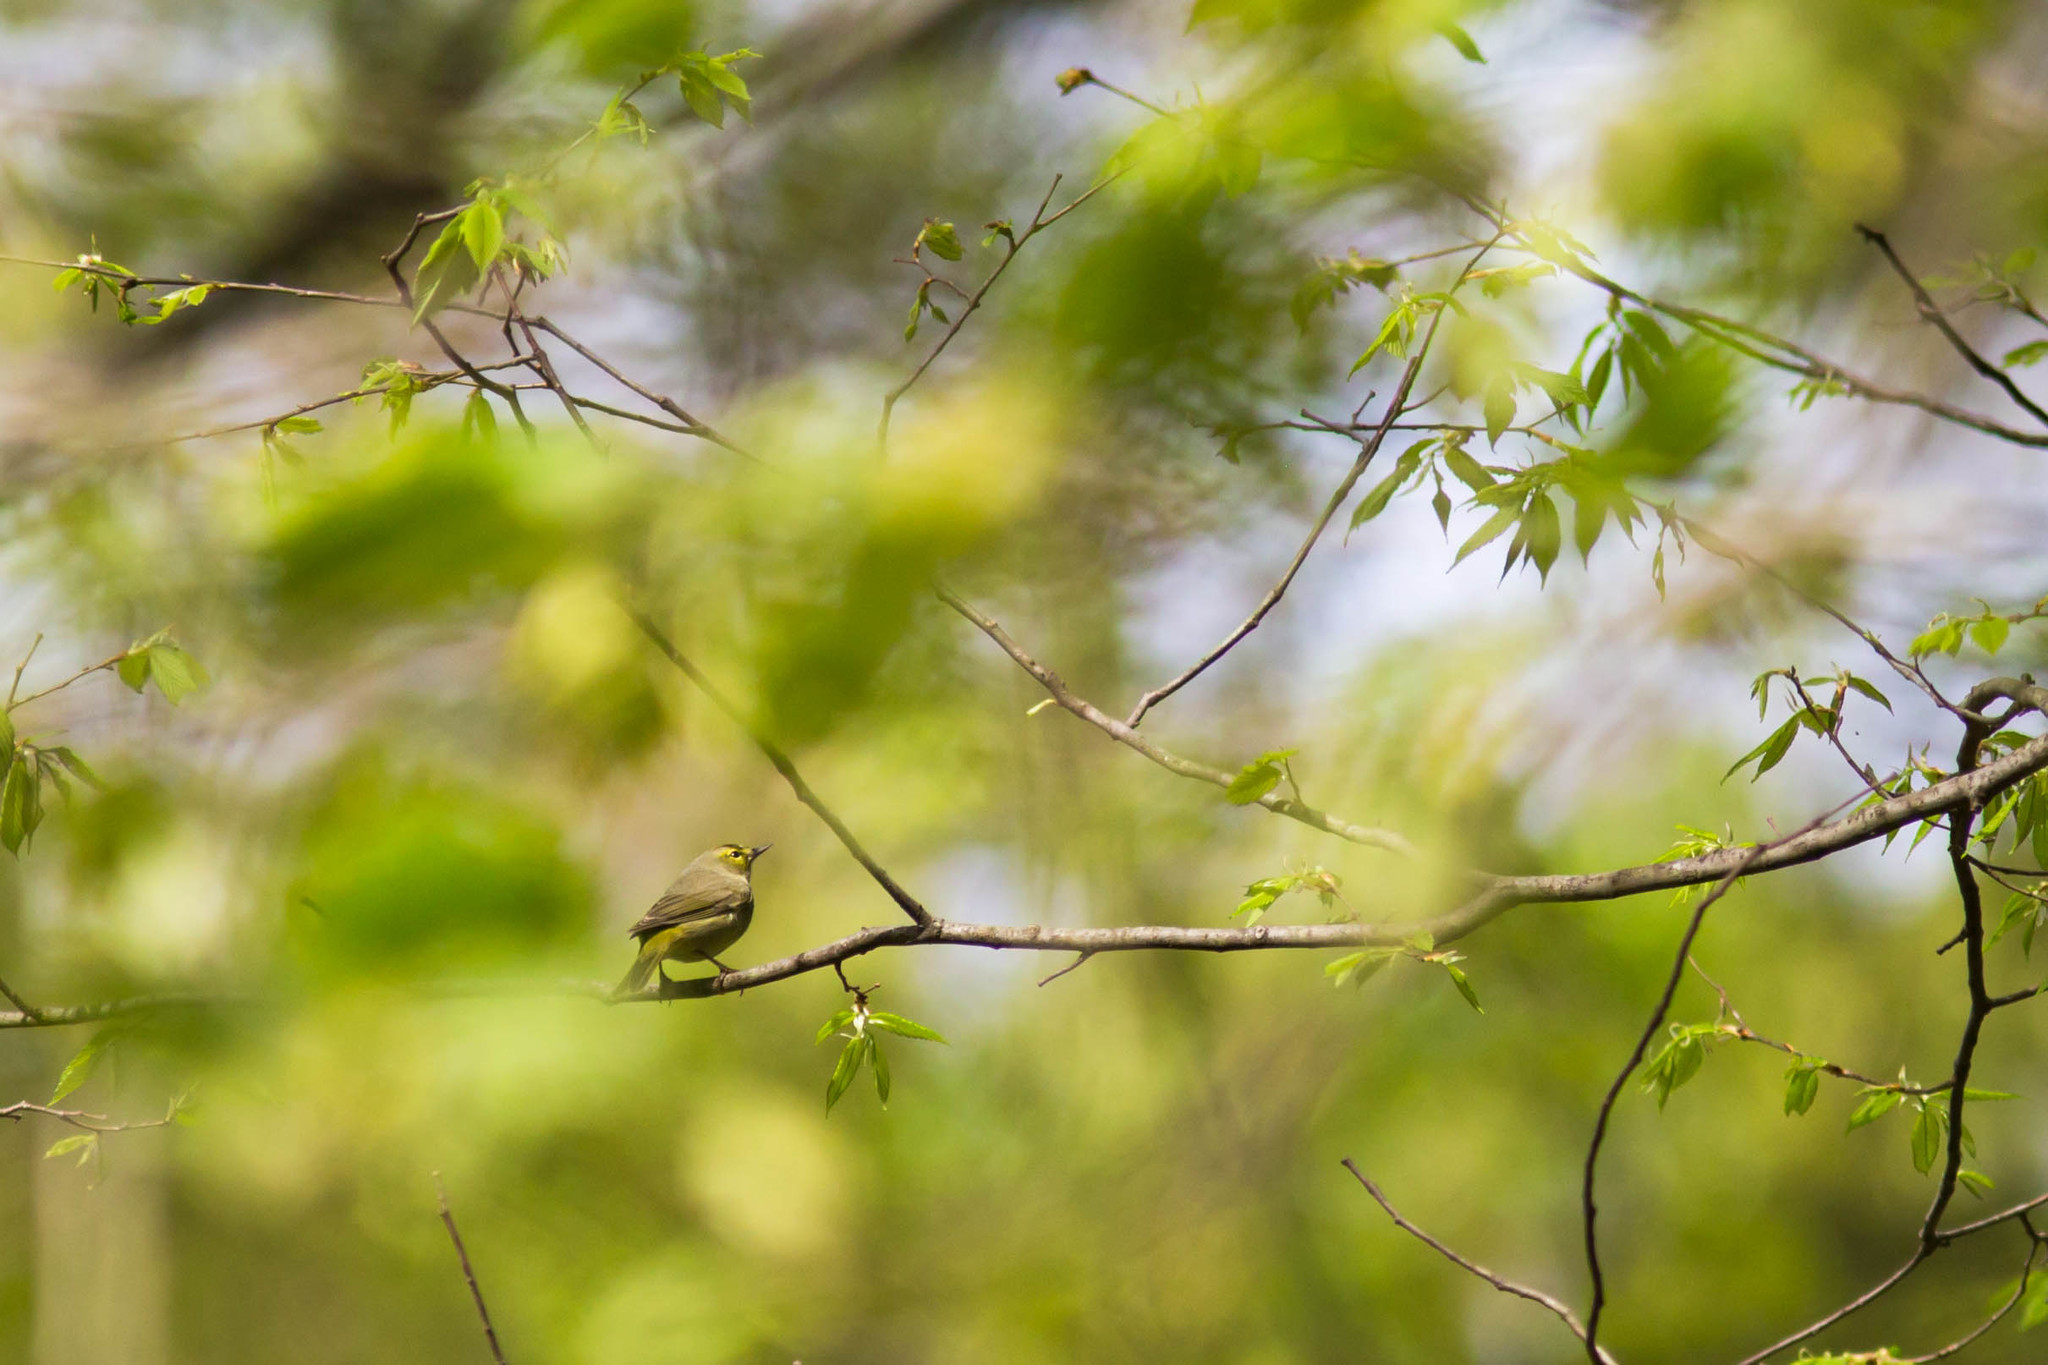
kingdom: Animalia
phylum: Chordata
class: Aves
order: Passeriformes
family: Parulidae
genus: Setophaga
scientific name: Setophaga palmarum
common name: Palm warbler
